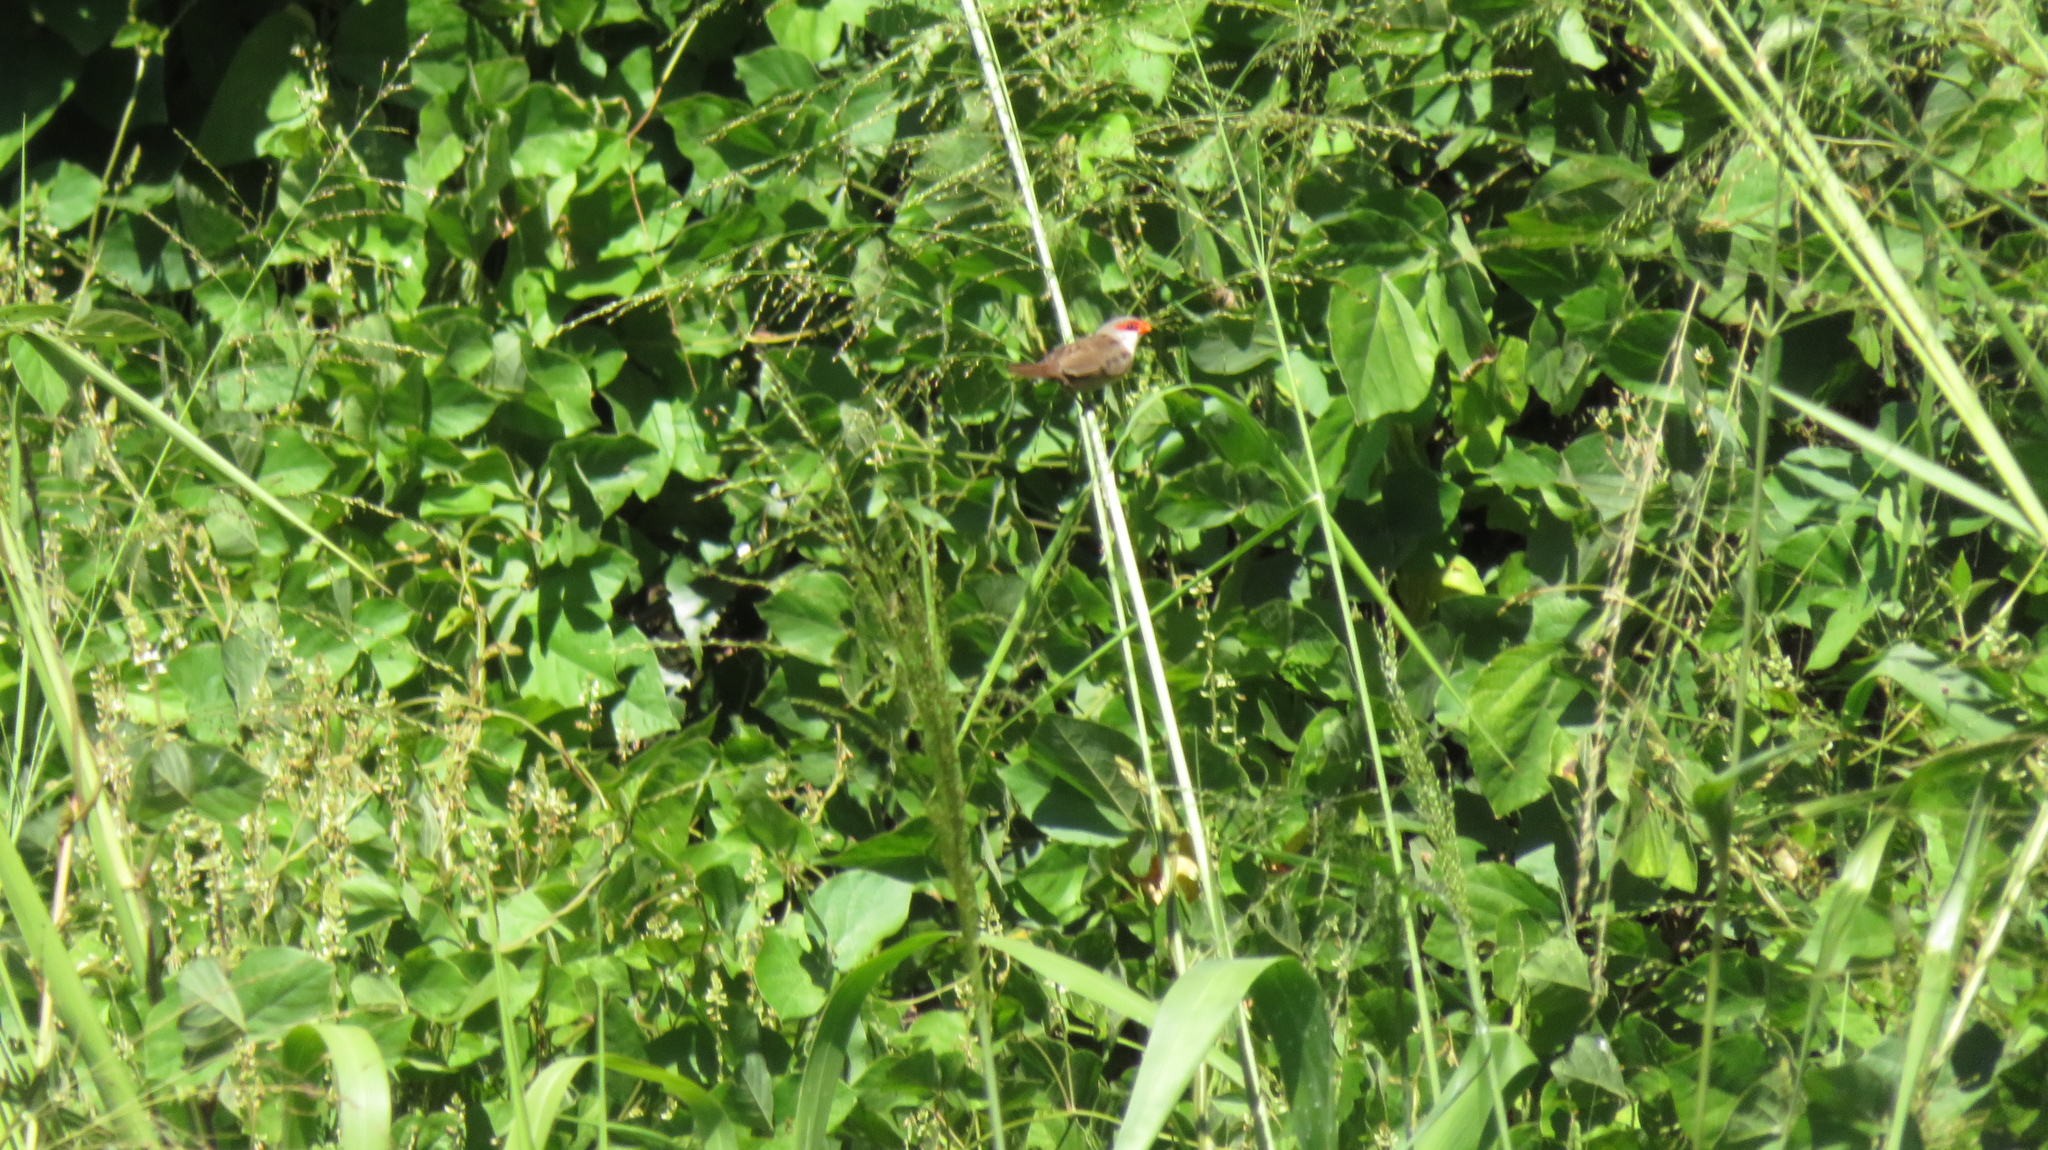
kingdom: Animalia
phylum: Chordata
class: Aves
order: Passeriformes
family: Estrildidae
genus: Estrilda
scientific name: Estrilda astrild
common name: Common waxbill
